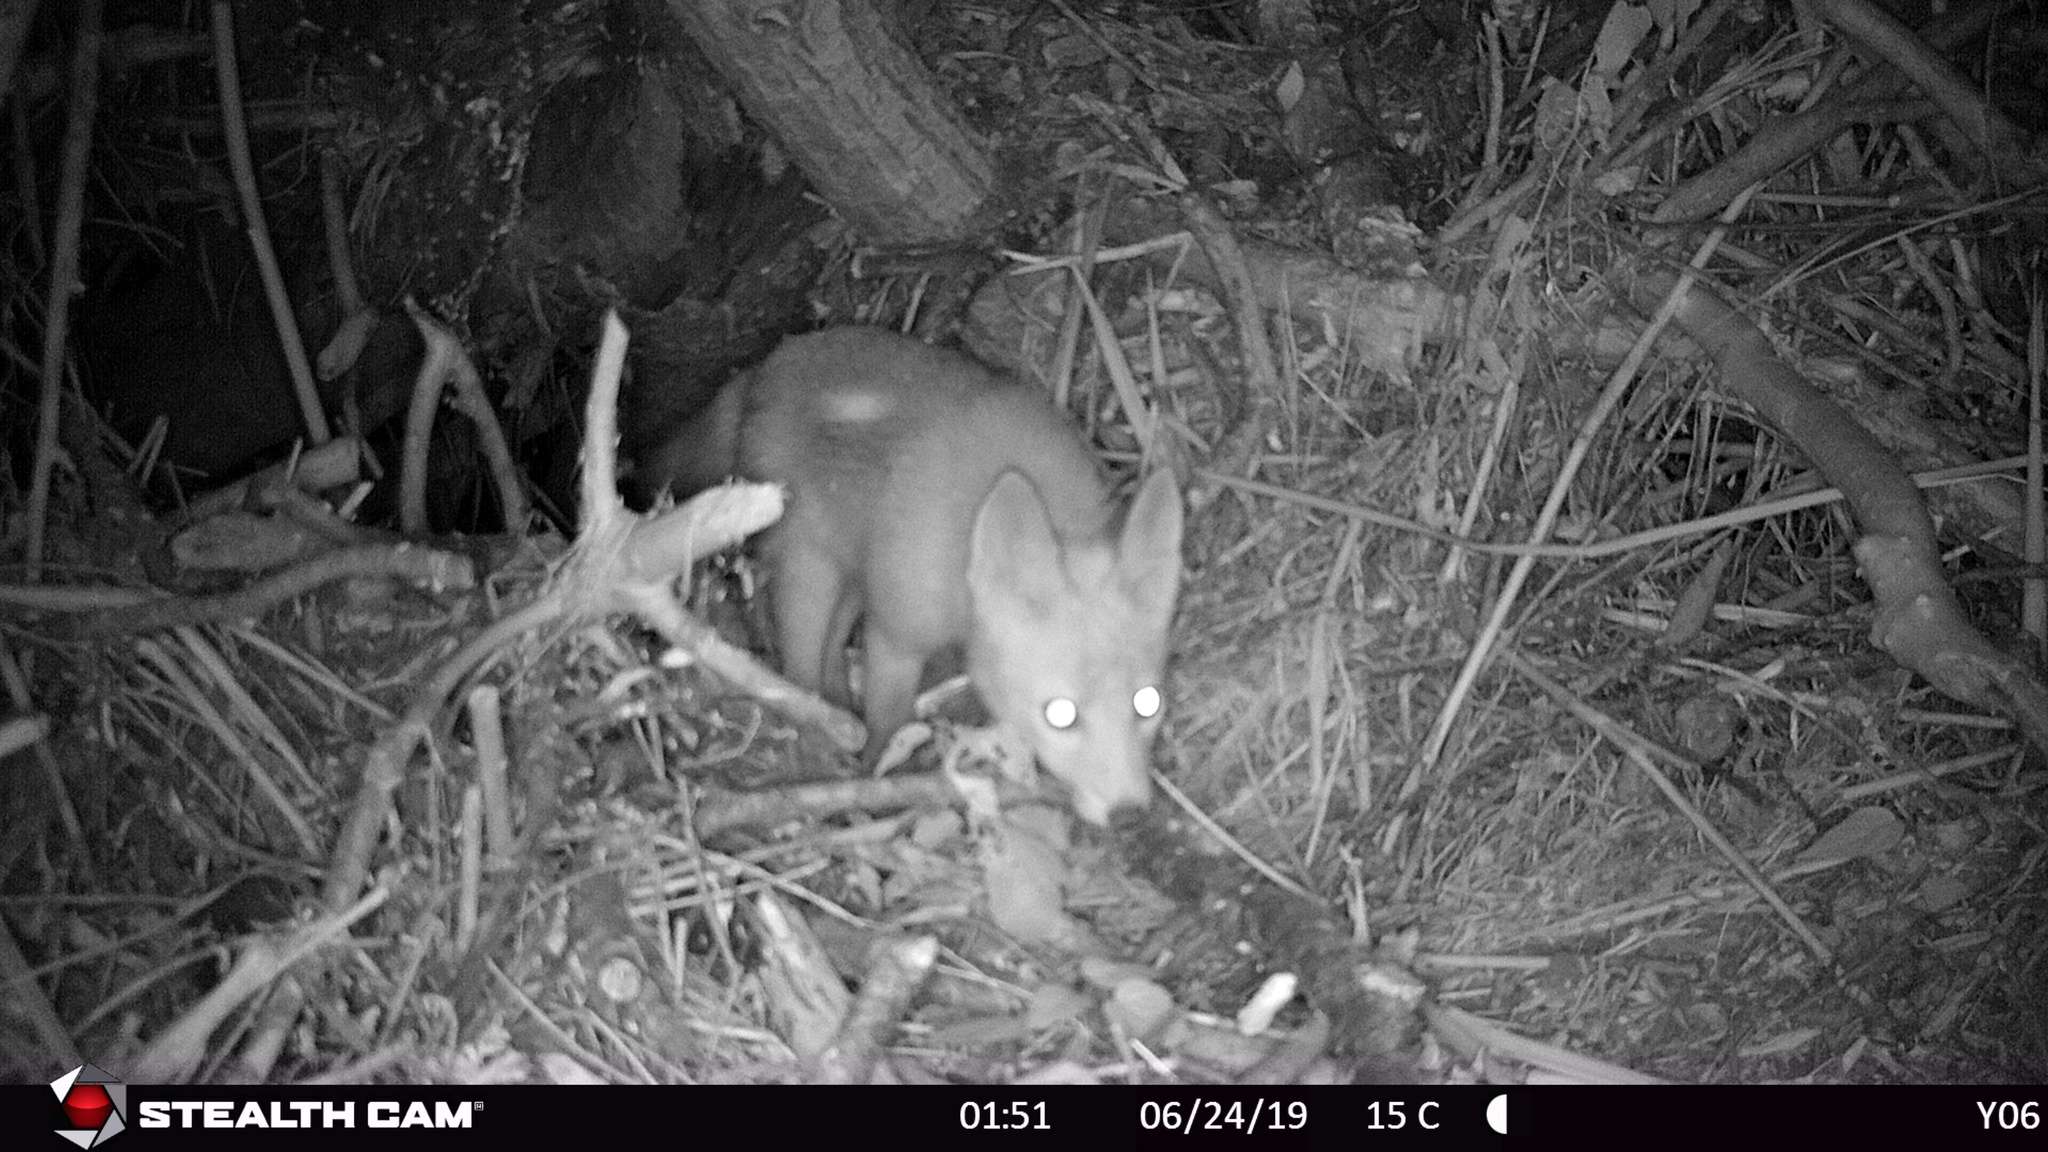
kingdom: Animalia
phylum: Chordata
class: Mammalia
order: Carnivora
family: Canidae
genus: Vulpes
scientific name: Vulpes vulpes
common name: Red fox
